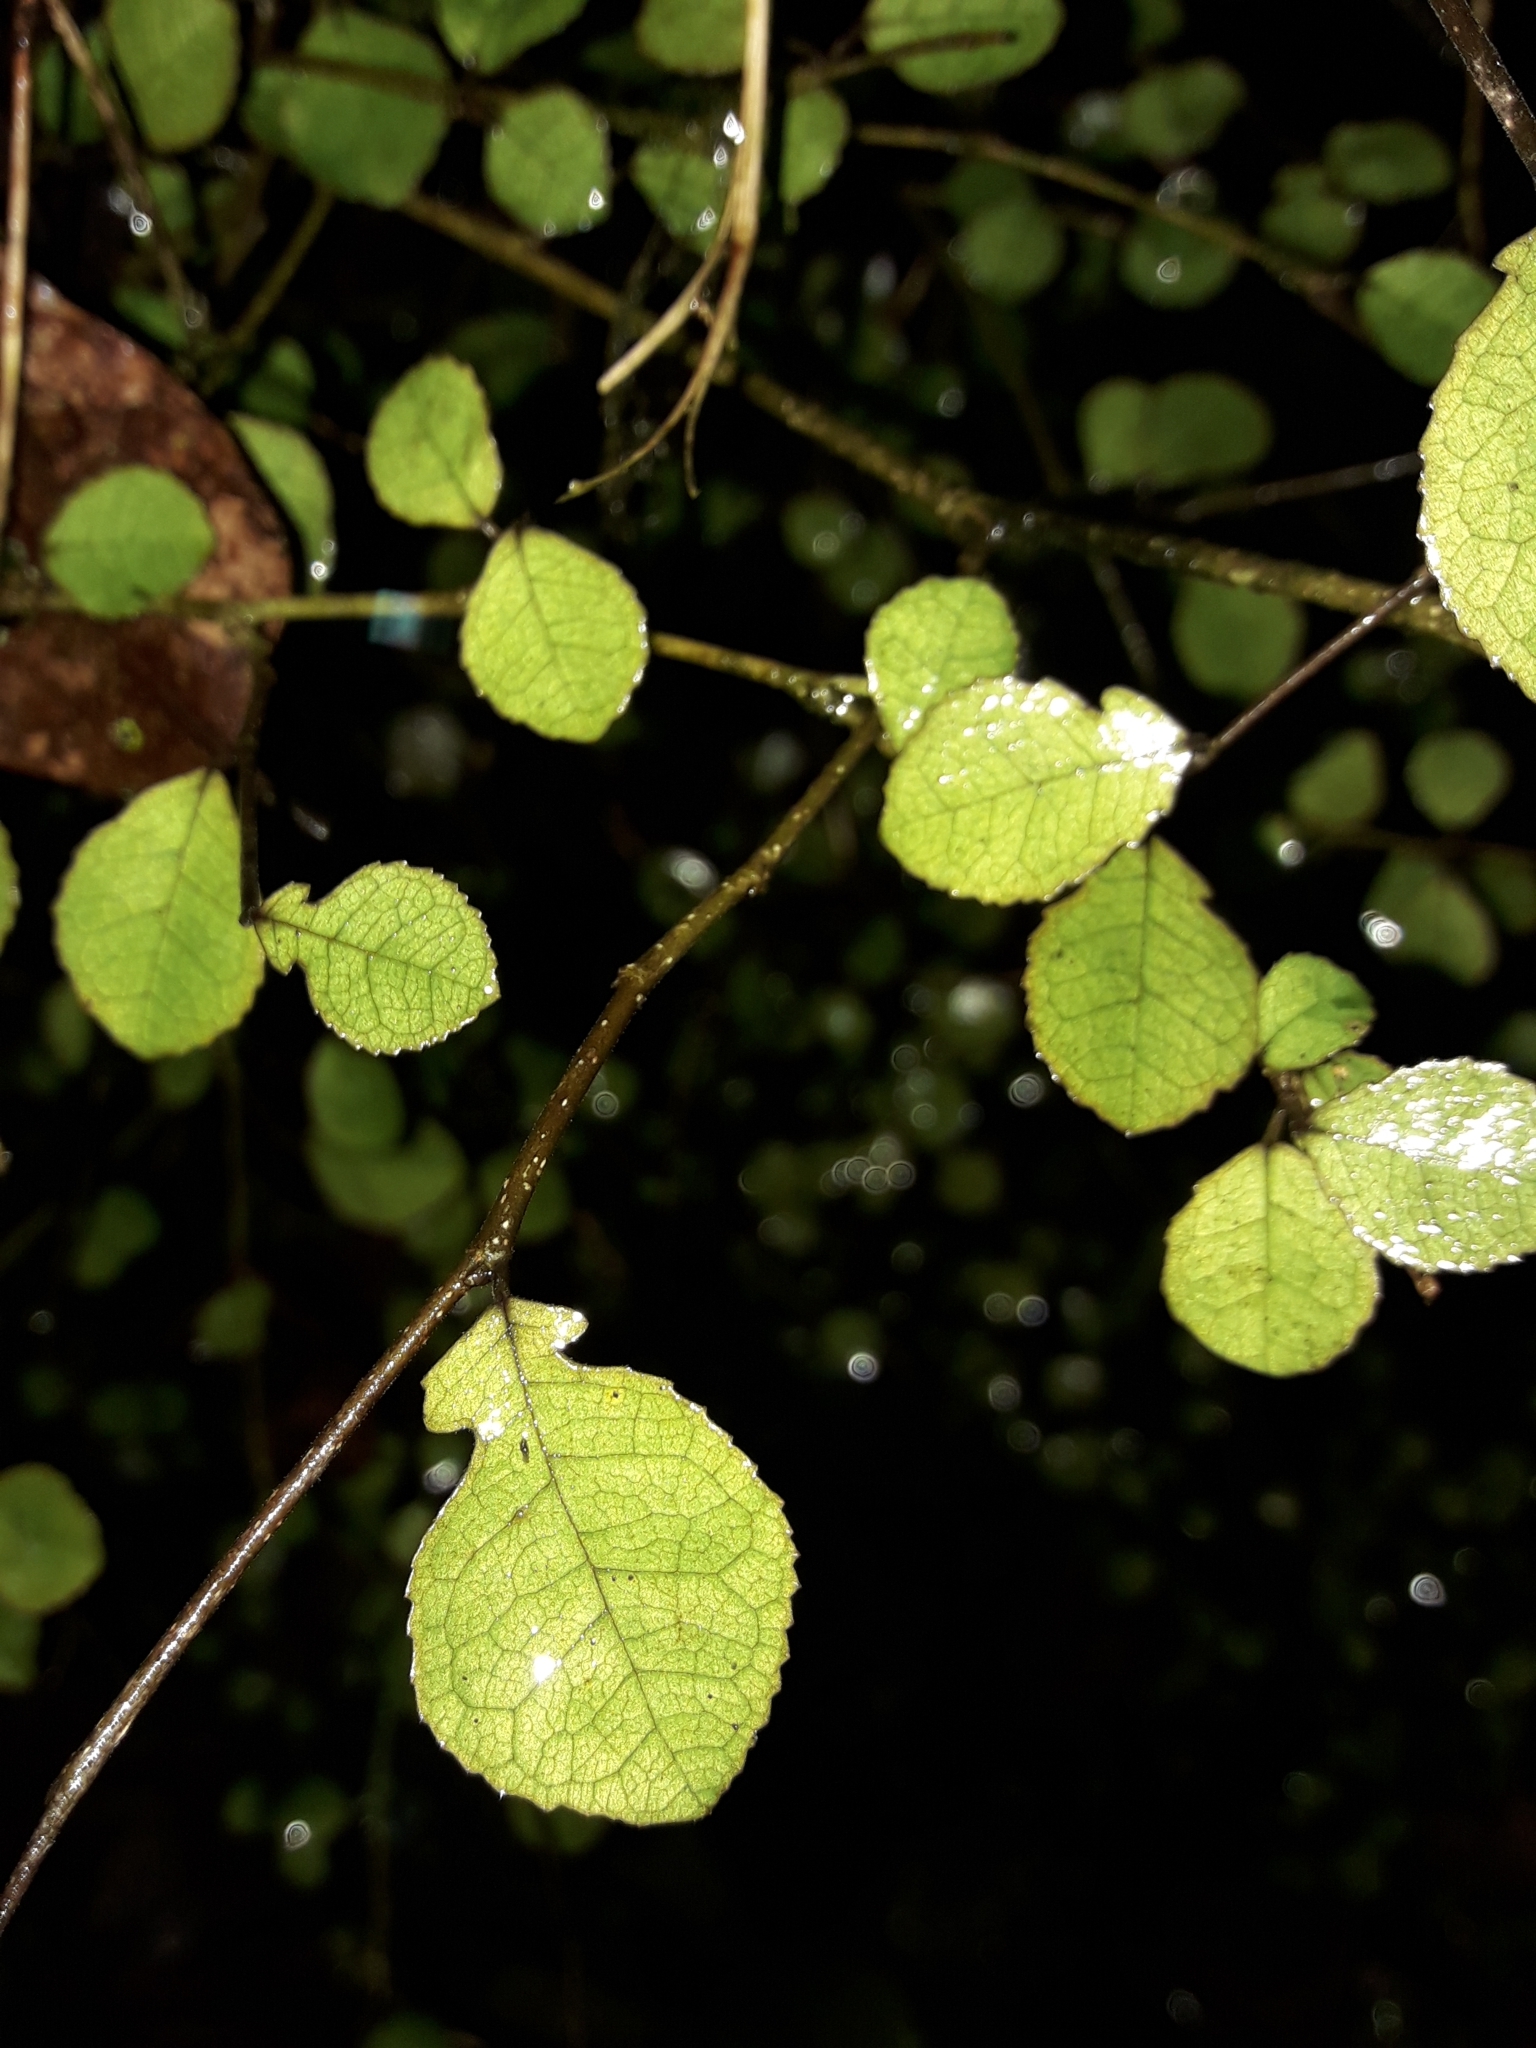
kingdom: Plantae
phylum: Tracheophyta
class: Magnoliopsida
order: Rosales
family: Moraceae
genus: Paratrophis
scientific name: Paratrophis microphylla
